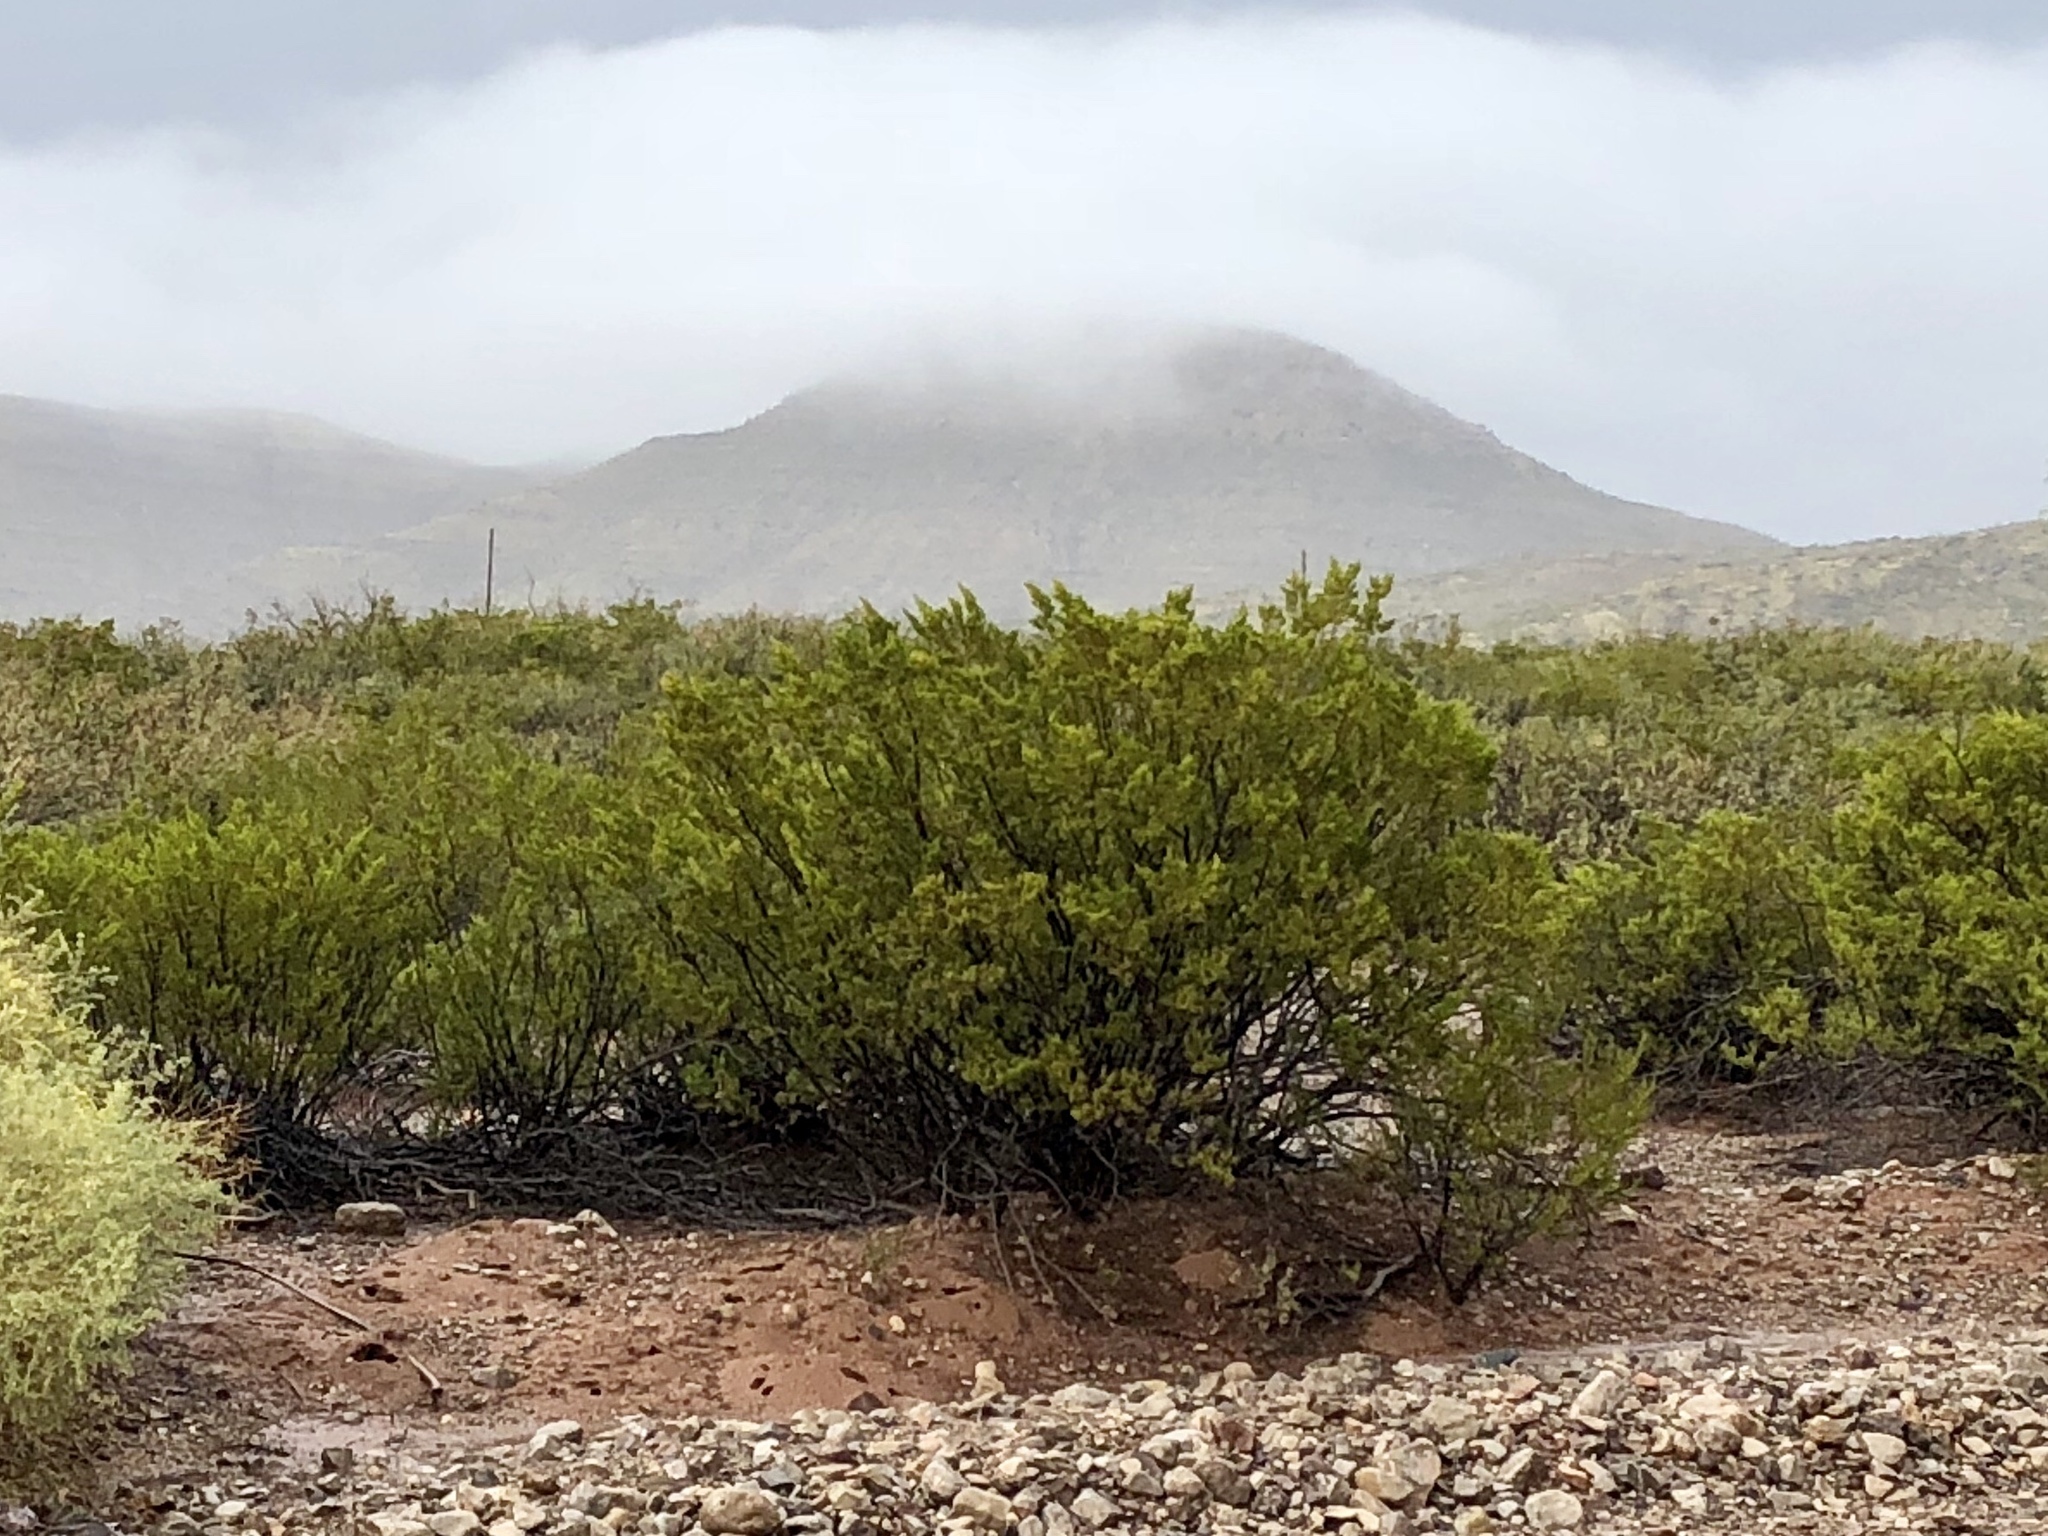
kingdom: Plantae
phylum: Tracheophyta
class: Magnoliopsida
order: Zygophyllales
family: Zygophyllaceae
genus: Larrea
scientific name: Larrea tridentata
